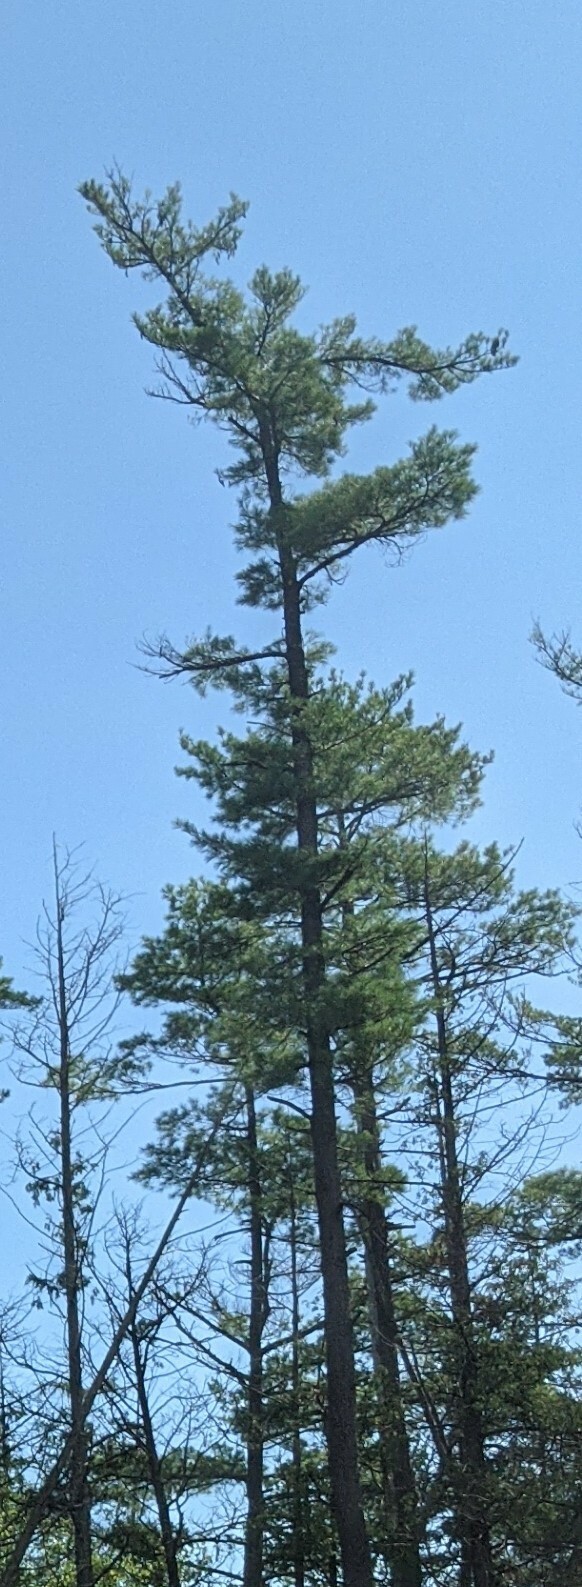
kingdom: Plantae
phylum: Tracheophyta
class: Pinopsida
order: Pinales
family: Pinaceae
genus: Pinus
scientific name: Pinus strobus
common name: Weymouth pine
